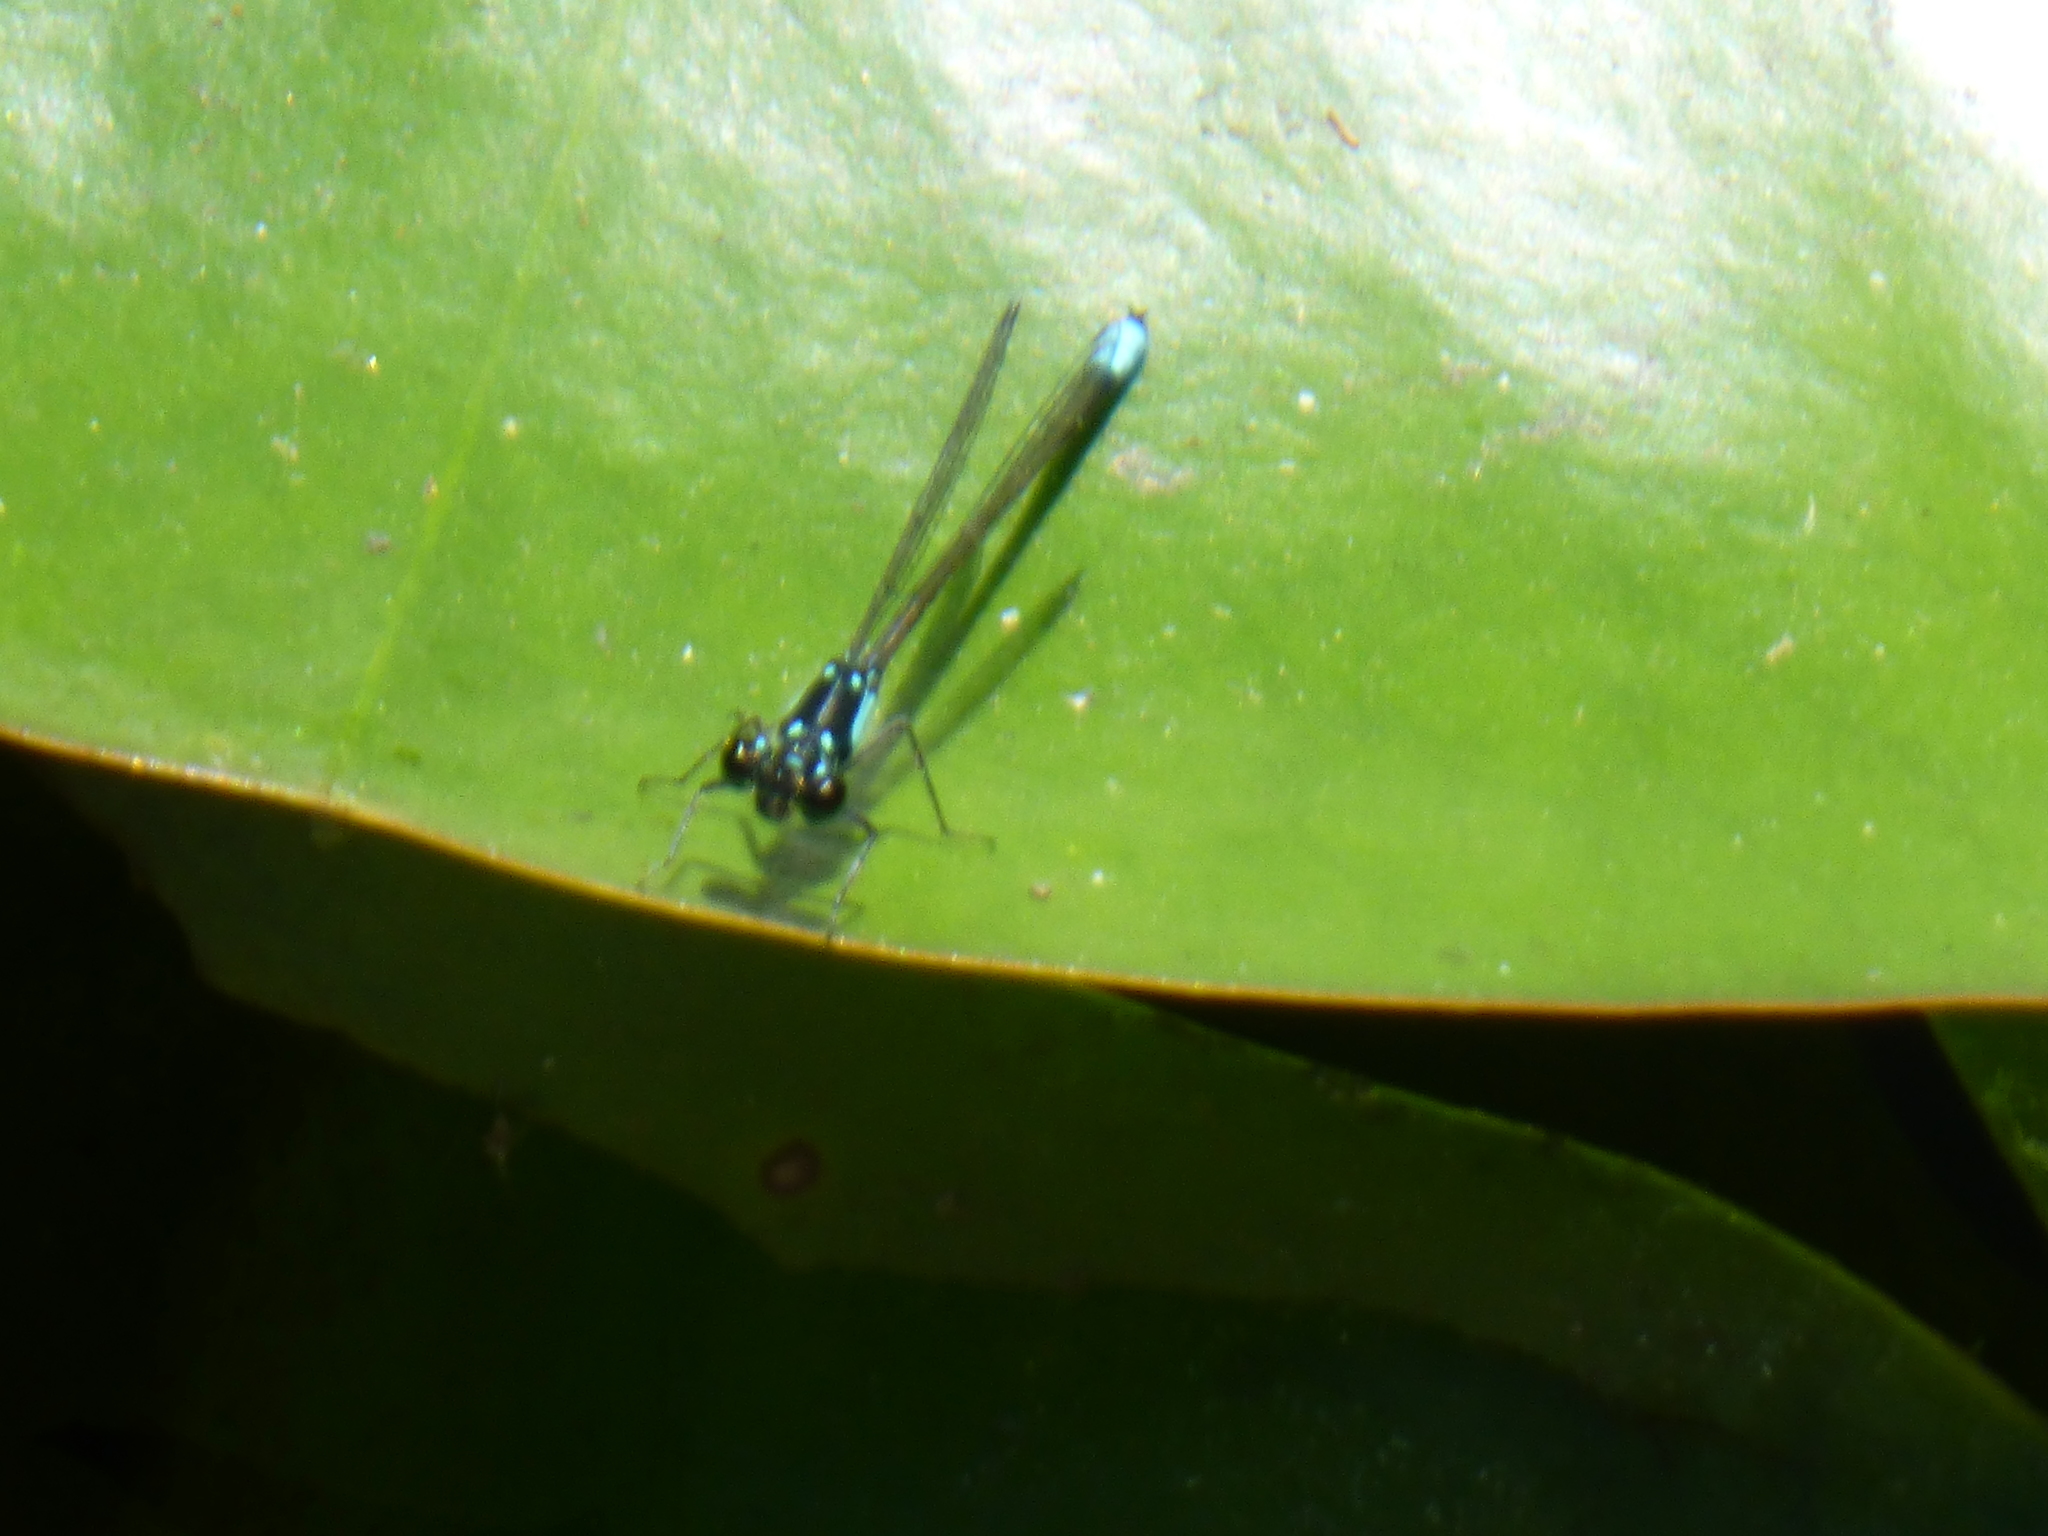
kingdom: Animalia
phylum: Arthropoda
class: Insecta
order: Odonata
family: Coenagrionidae
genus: Ischnura
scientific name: Ischnura cervula
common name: Pacific forktail
